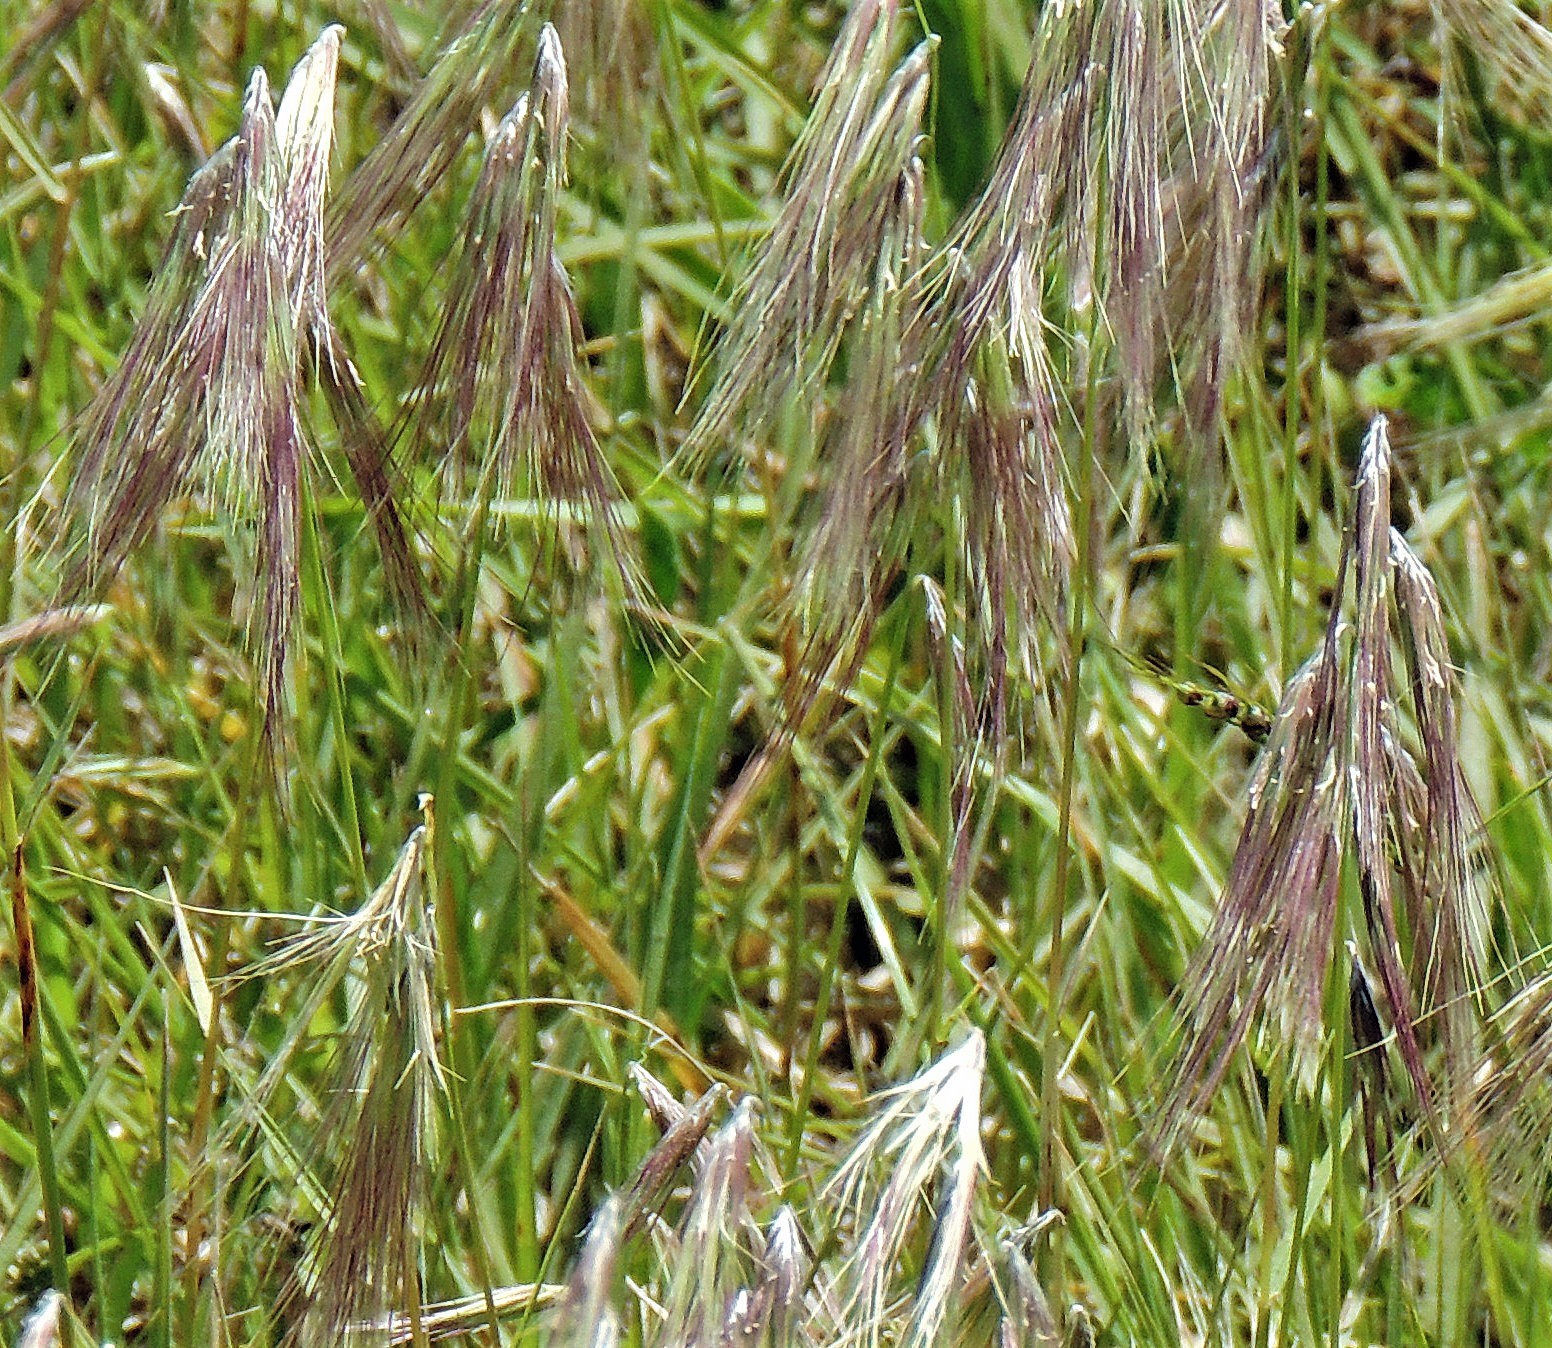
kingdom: Plantae
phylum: Tracheophyta
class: Liliopsida
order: Poales
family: Poaceae
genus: Bouteloua
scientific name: Bouteloua megapotamica
